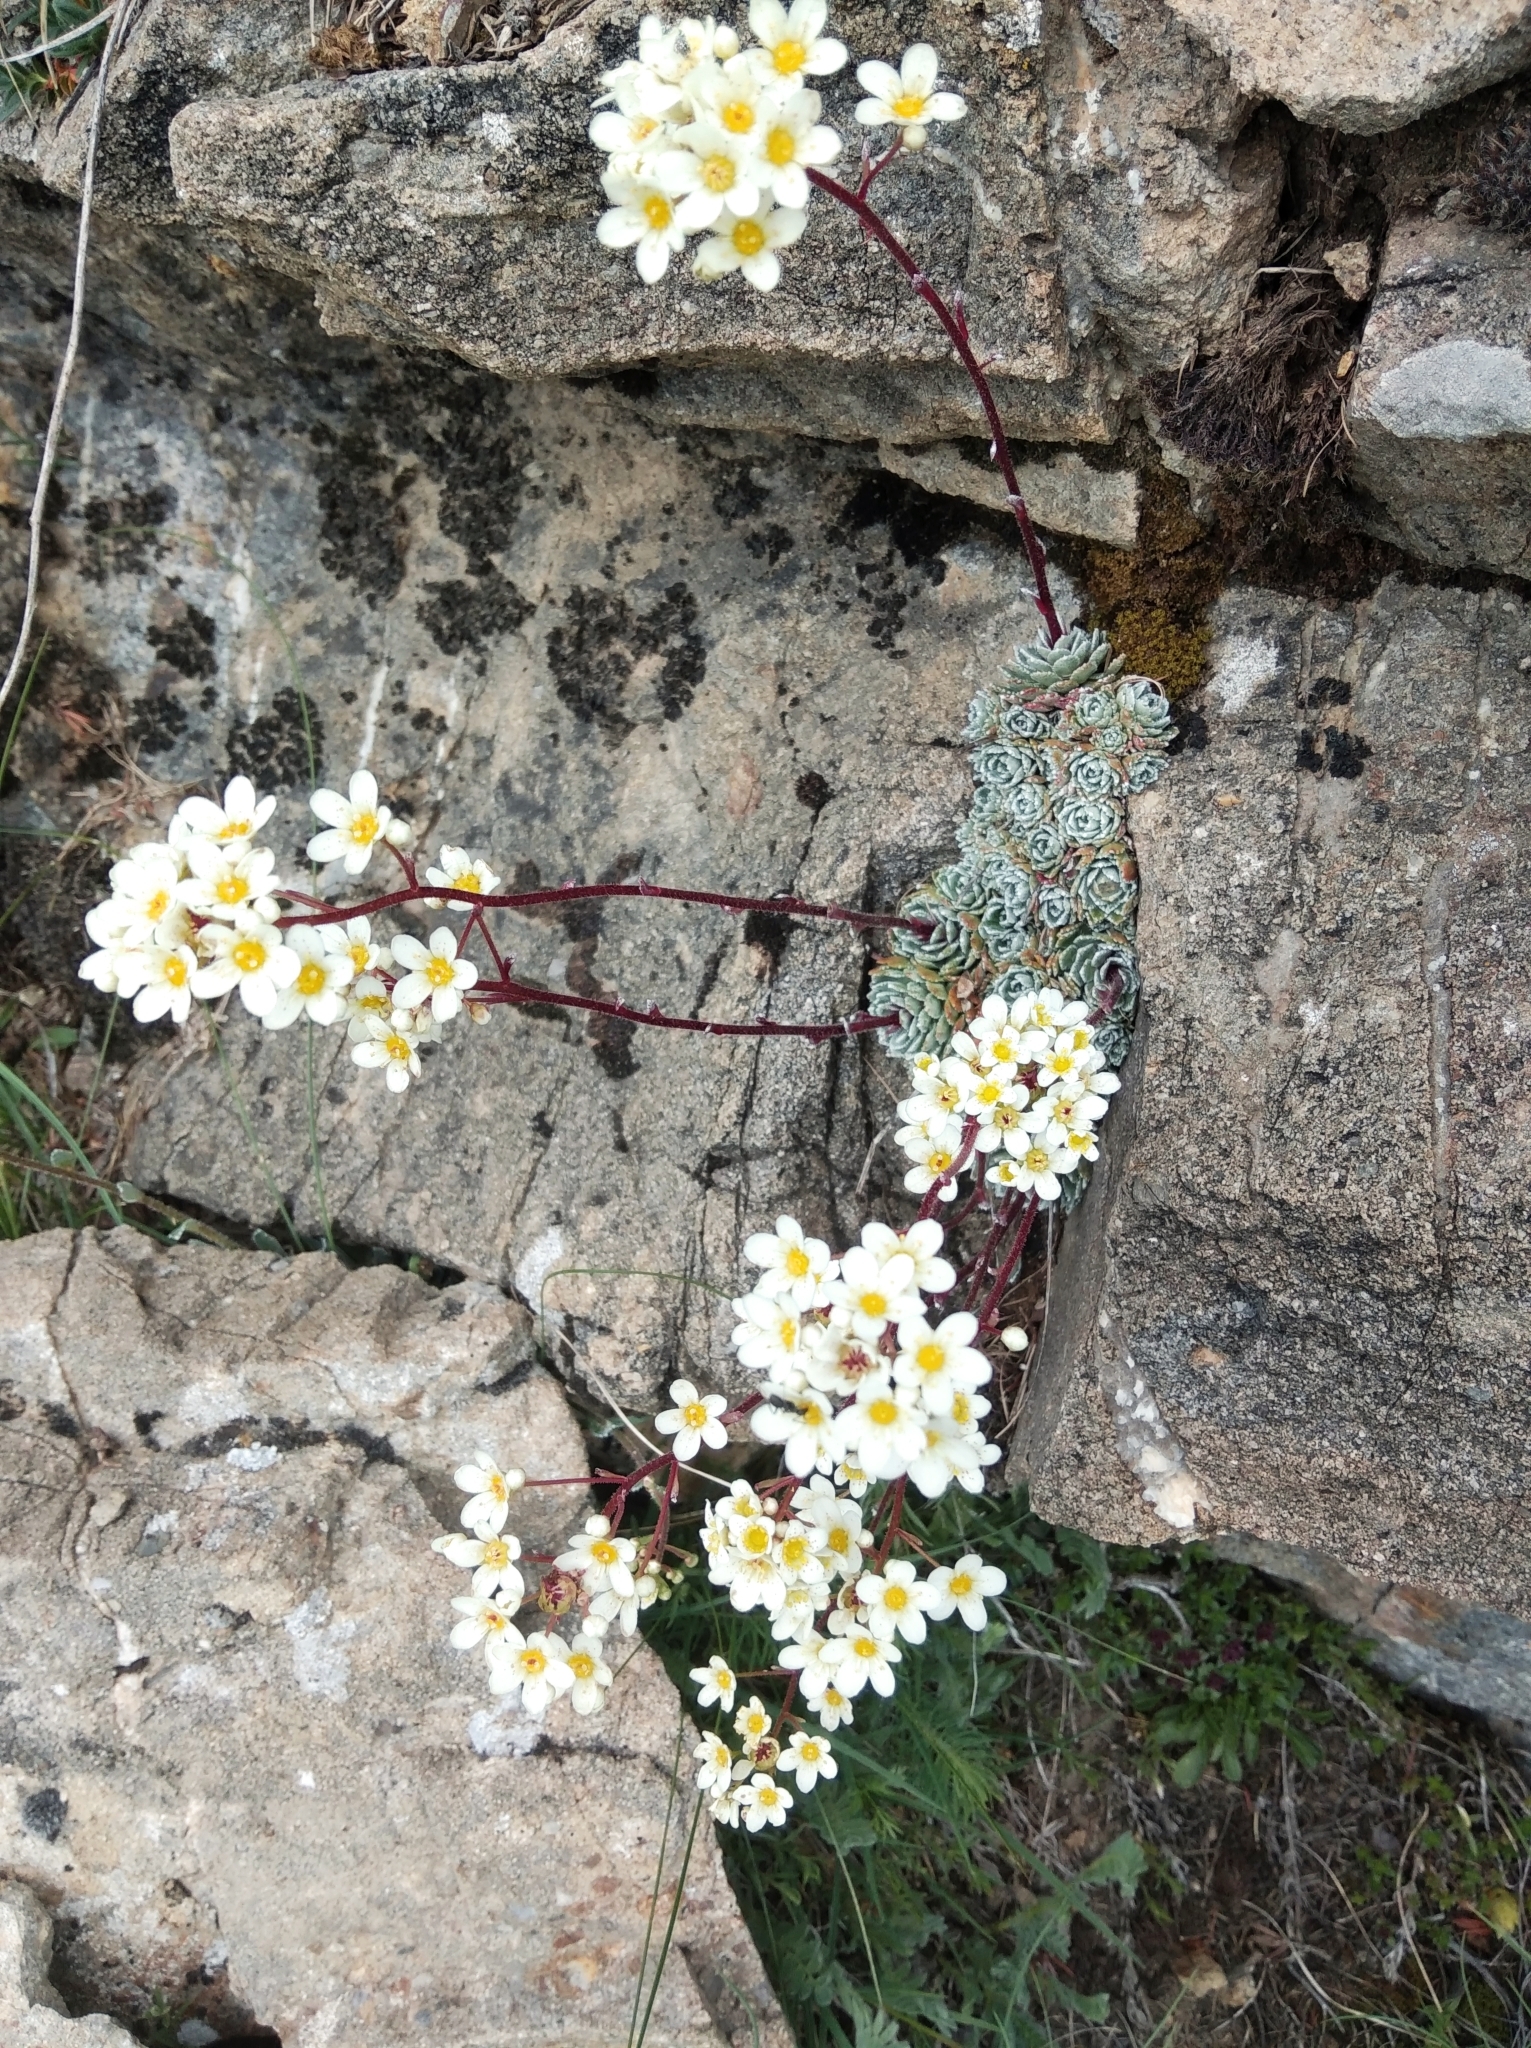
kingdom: Plantae
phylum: Tracheophyta
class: Magnoliopsida
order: Saxifragales
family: Saxifragaceae
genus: Saxifraga
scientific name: Saxifraga paniculata
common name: Livelong saxifrage
